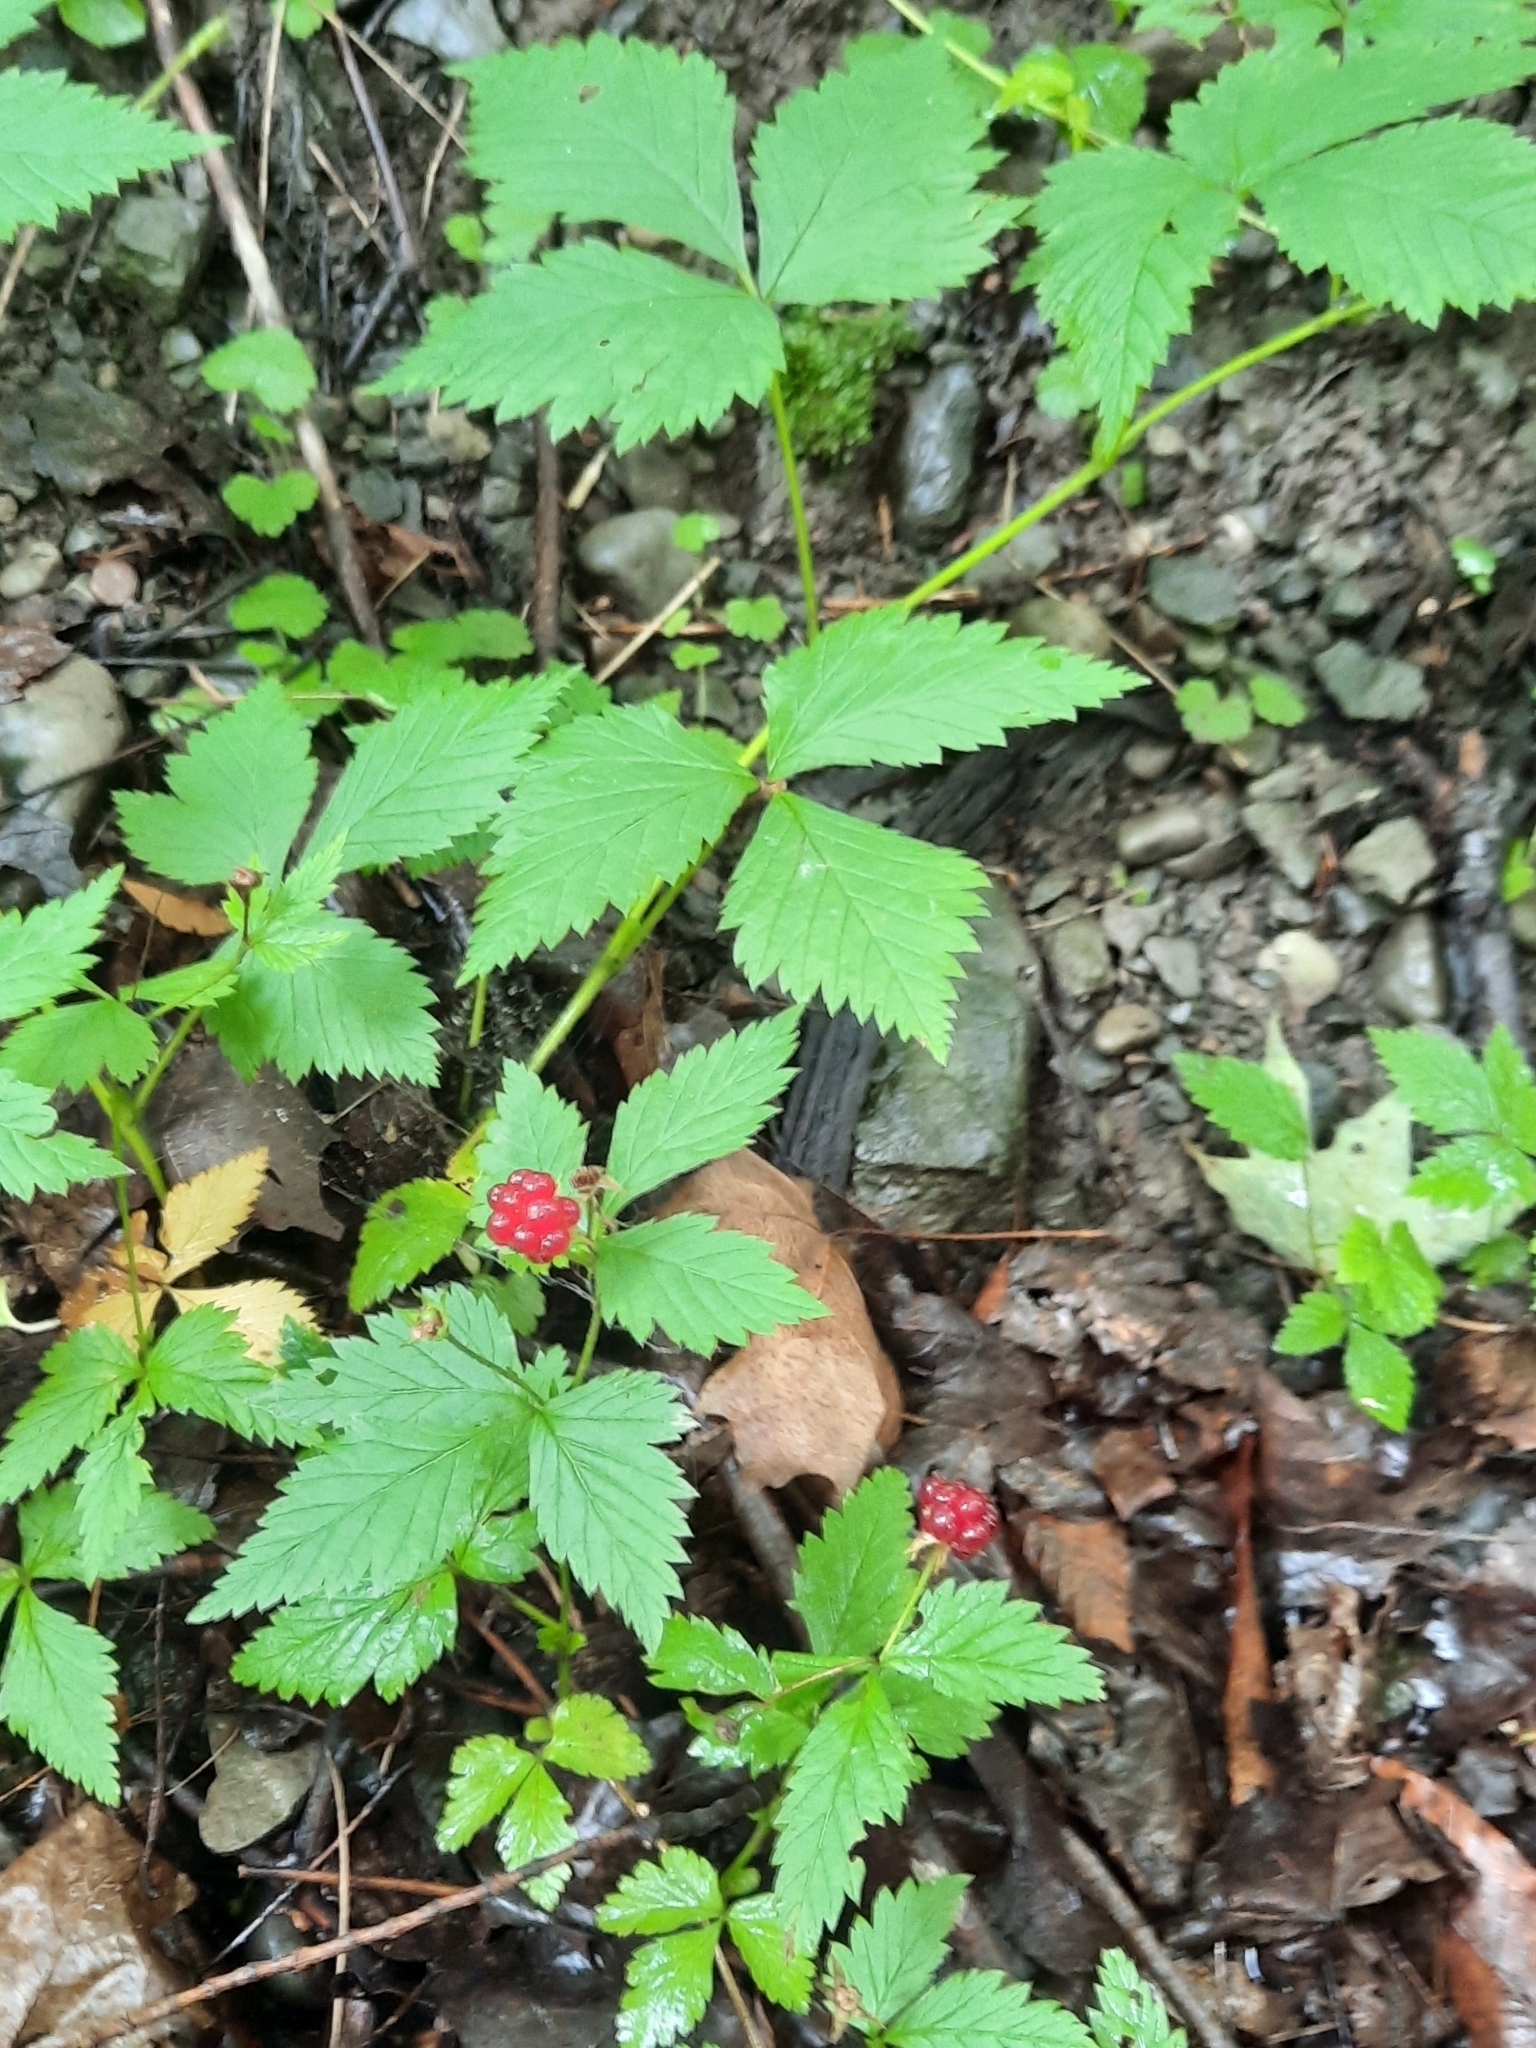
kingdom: Plantae
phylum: Tracheophyta
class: Magnoliopsida
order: Rosales
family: Rosaceae
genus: Rubus
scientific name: Rubus pubescens
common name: Dwarf raspberry
